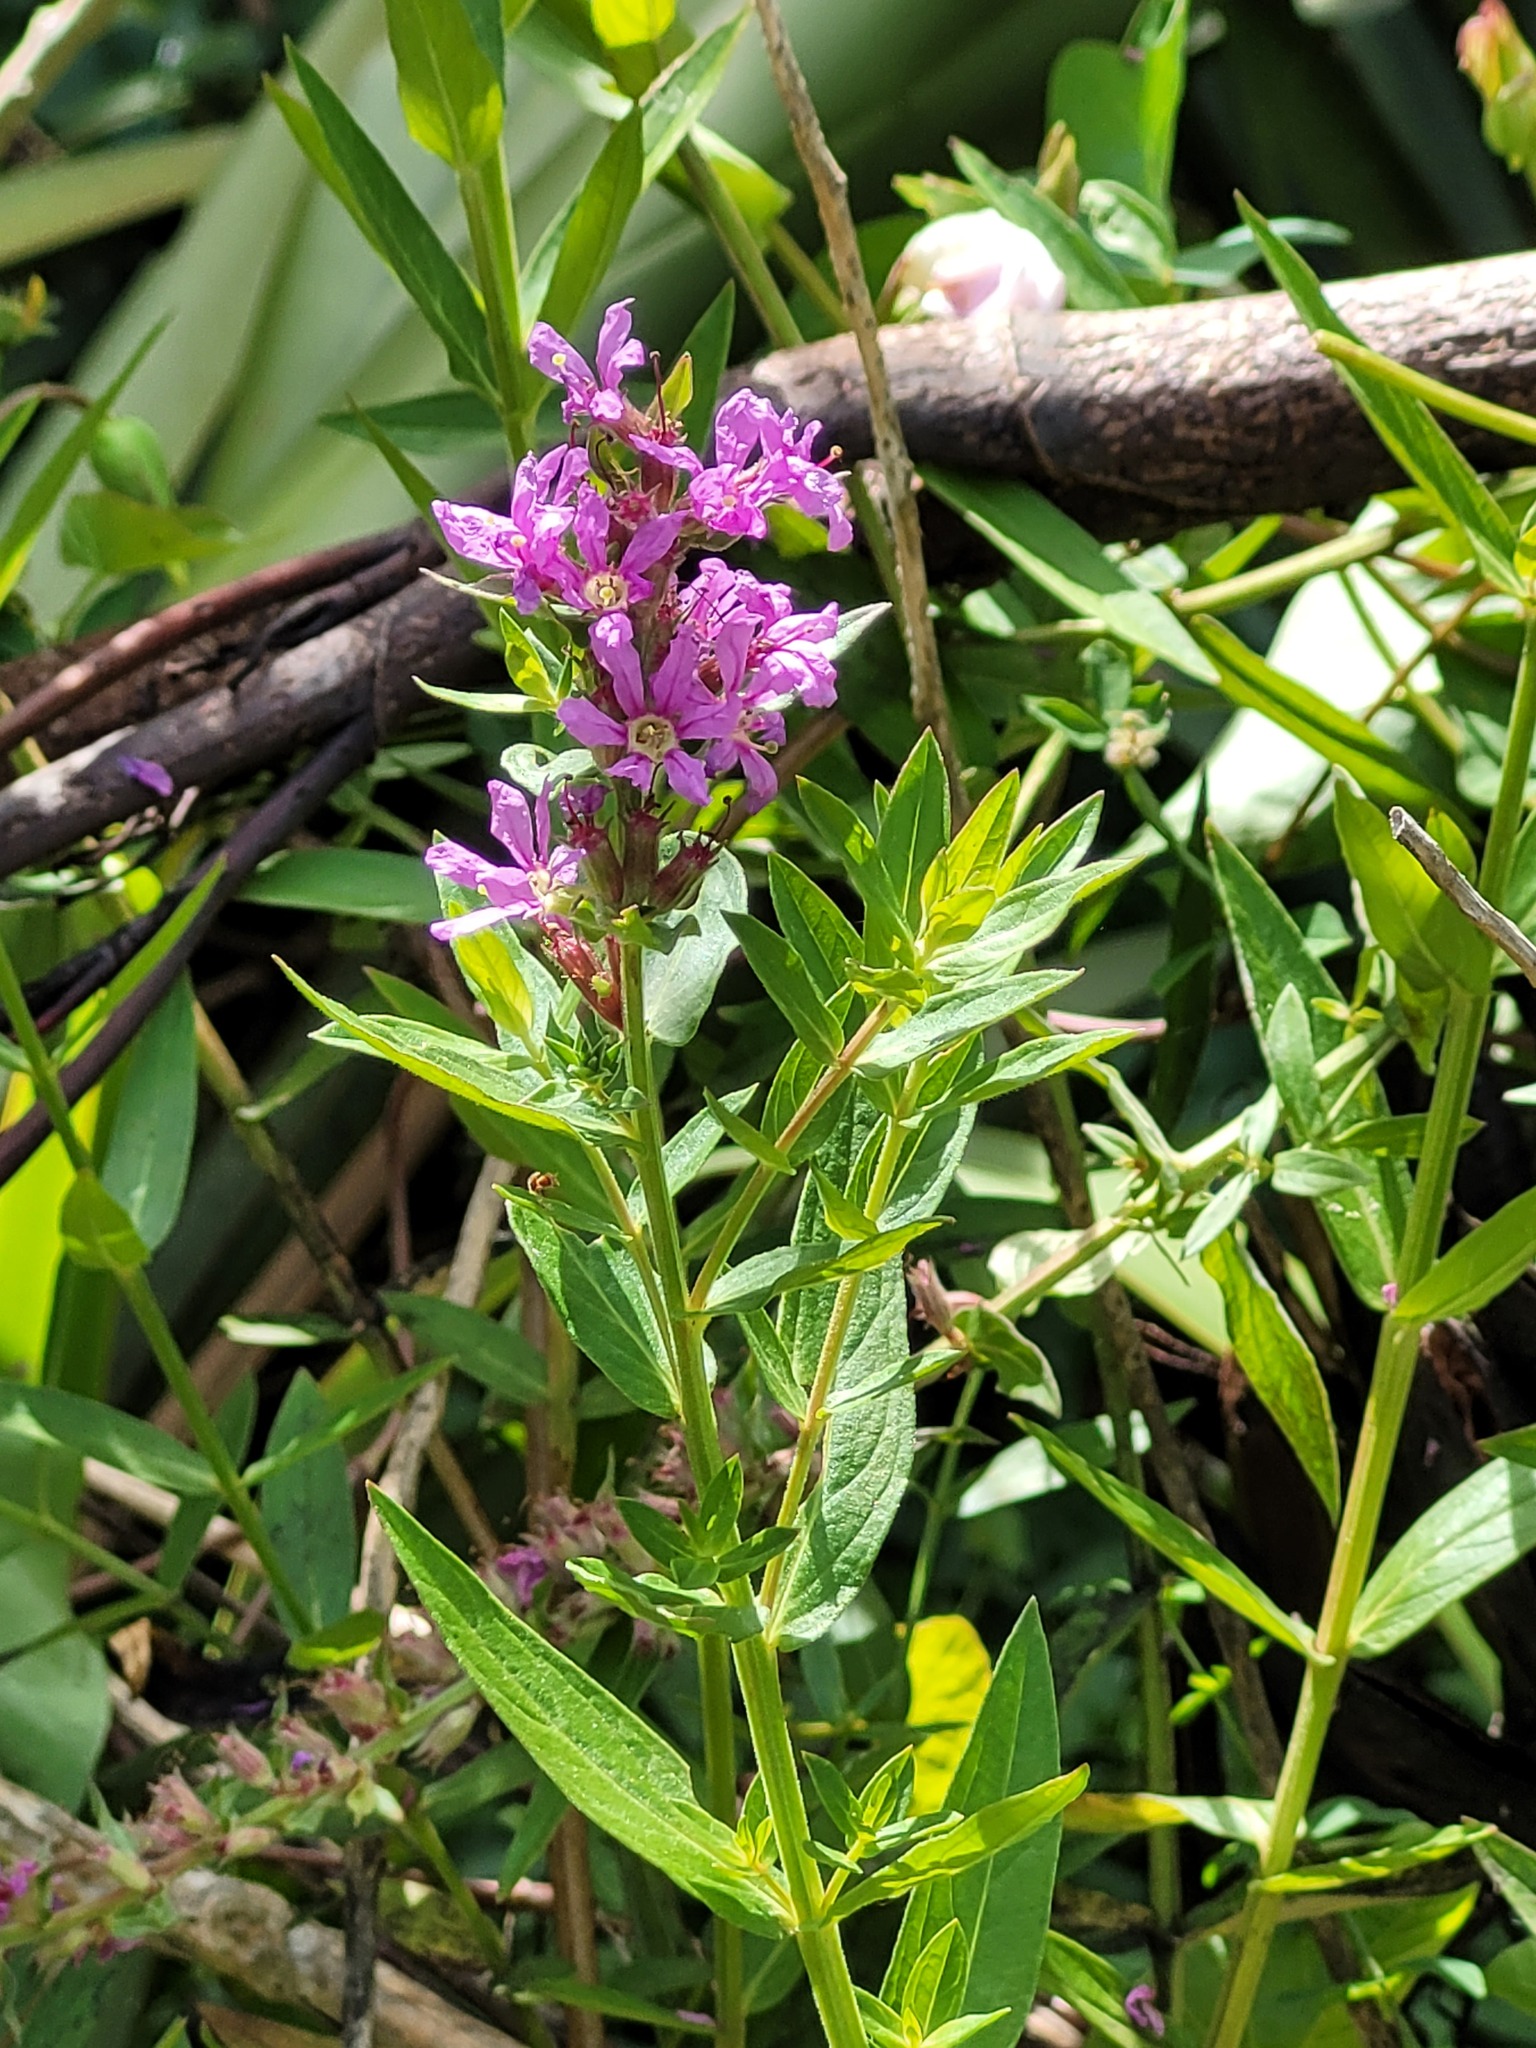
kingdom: Plantae
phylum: Tracheophyta
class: Magnoliopsida
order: Myrtales
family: Lythraceae
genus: Lythrum
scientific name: Lythrum salicaria
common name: Purple loosestrife
